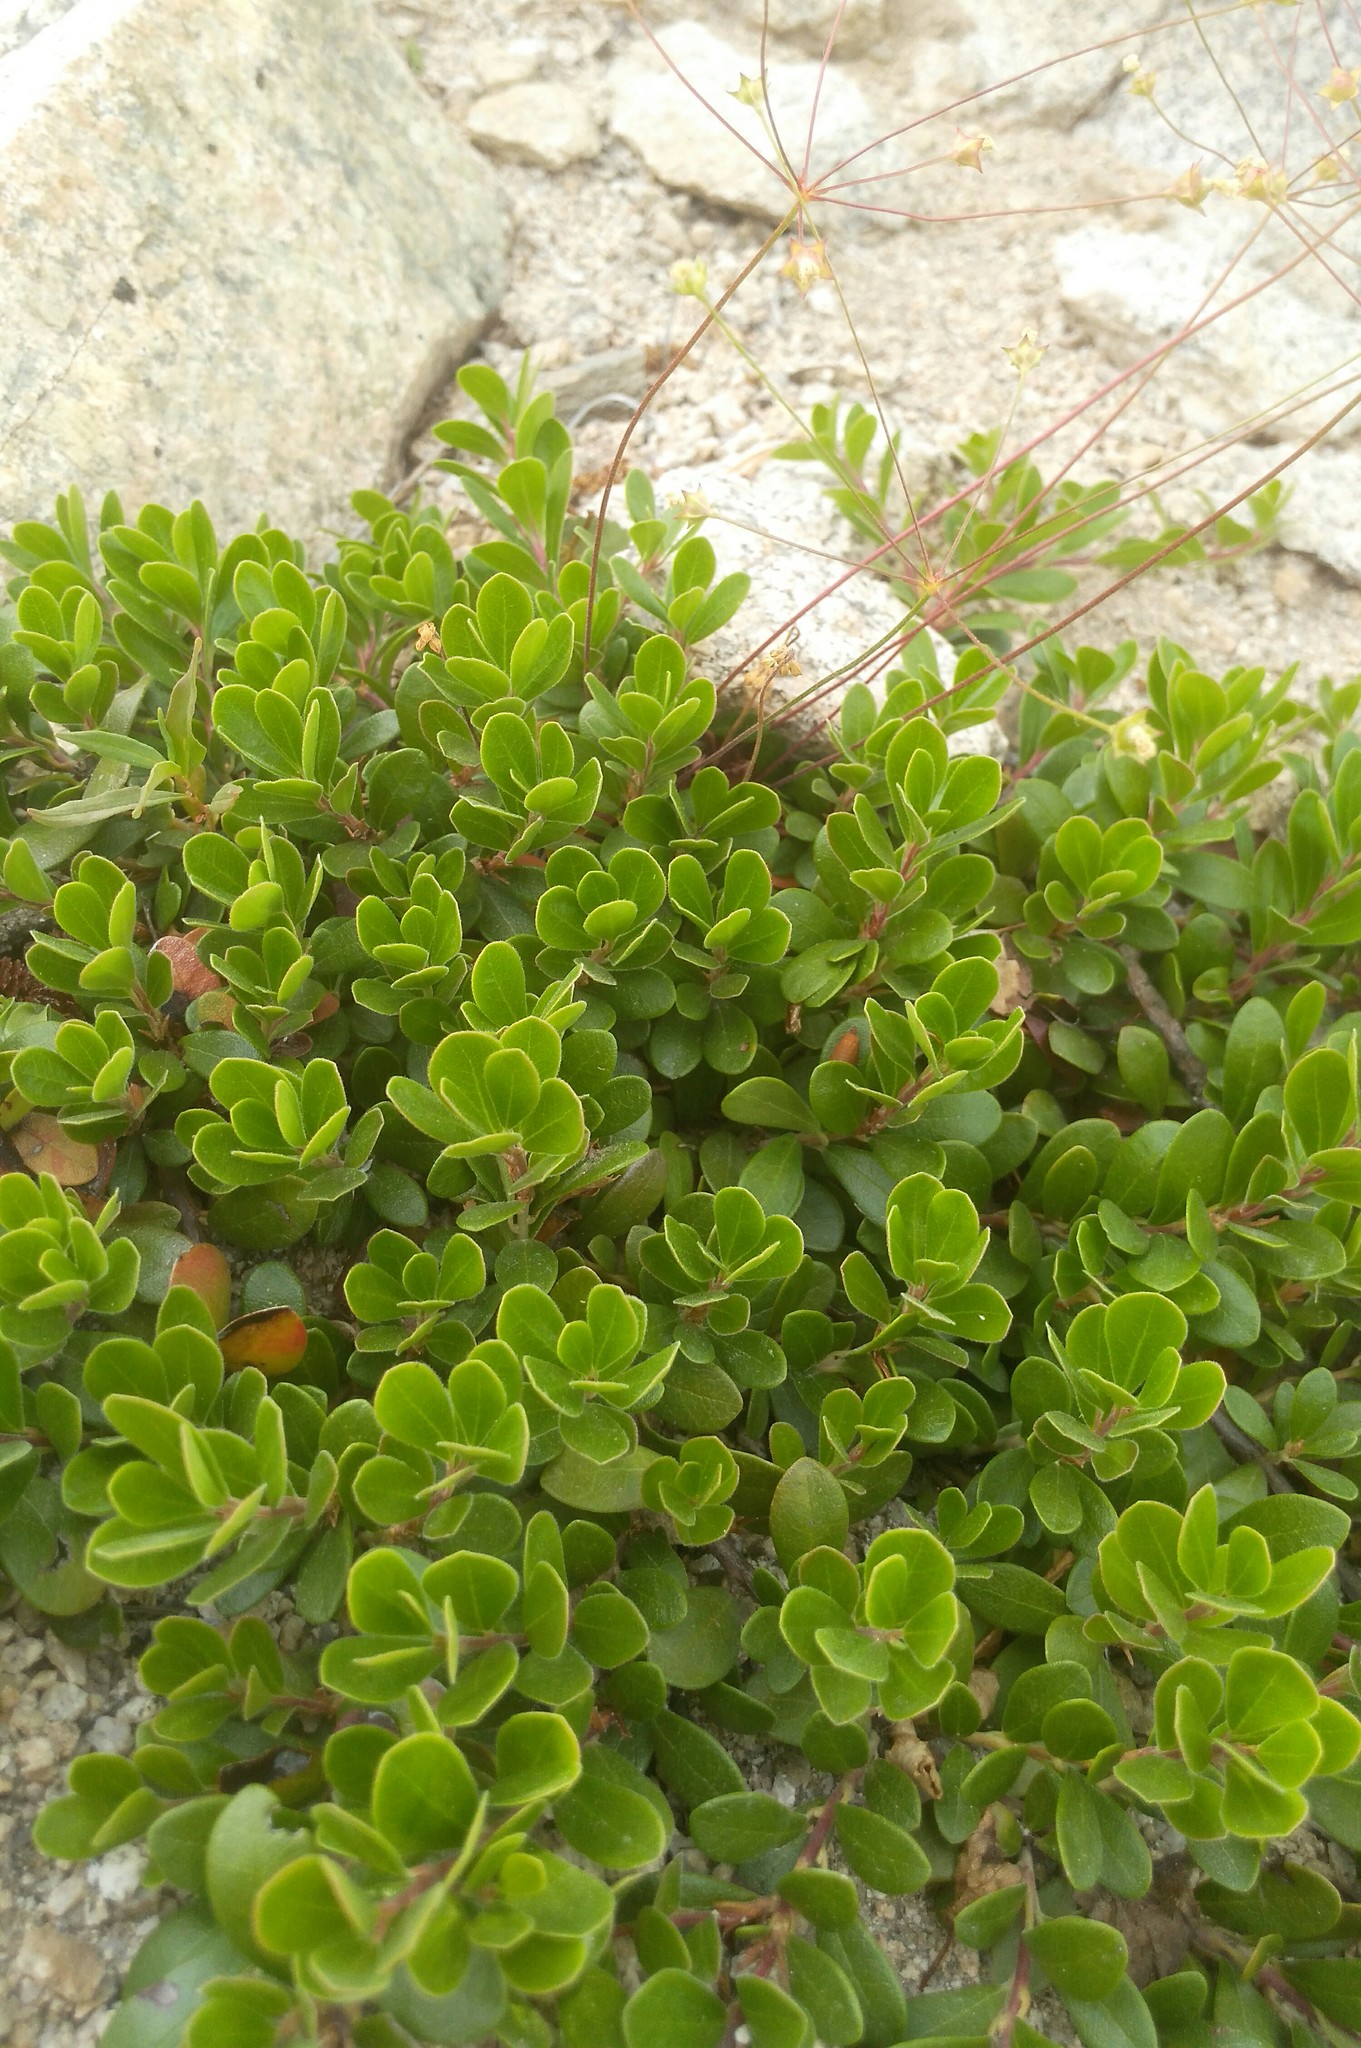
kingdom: Plantae
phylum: Tracheophyta
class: Magnoliopsida
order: Ericales
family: Ericaceae
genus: Arctostaphylos
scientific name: Arctostaphylos uva-ursi
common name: Bearberry
